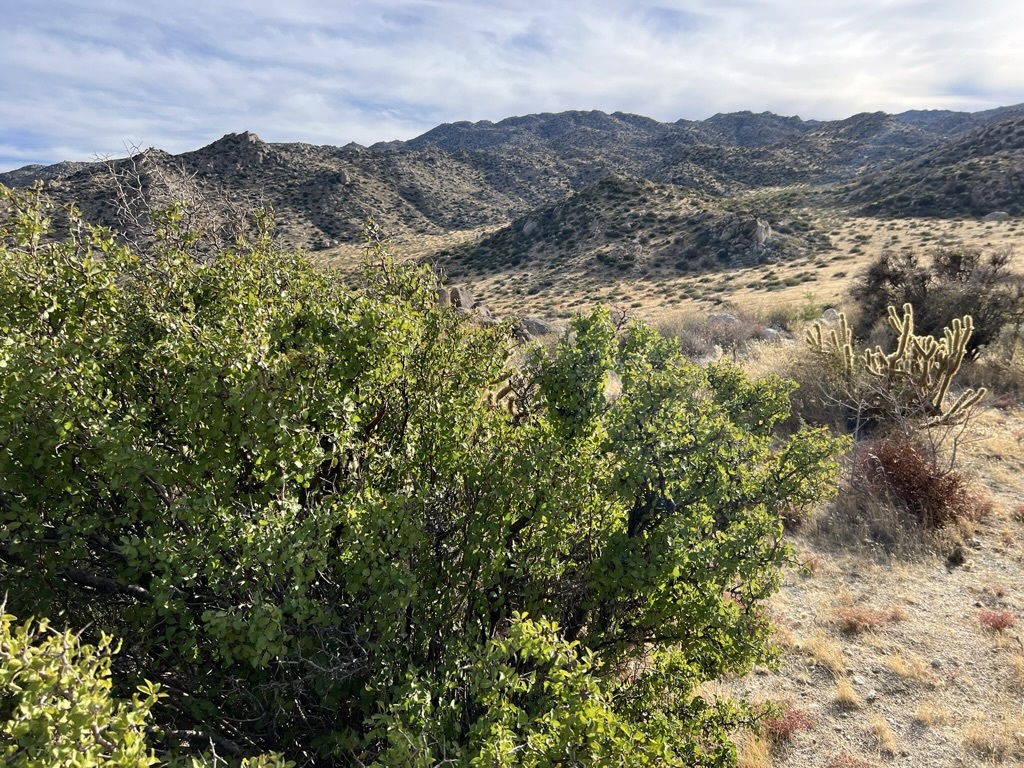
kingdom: Plantae
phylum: Tracheophyta
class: Magnoliopsida
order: Rosales
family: Rosaceae
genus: Prunus
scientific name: Prunus fremontii
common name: Desert apricot
